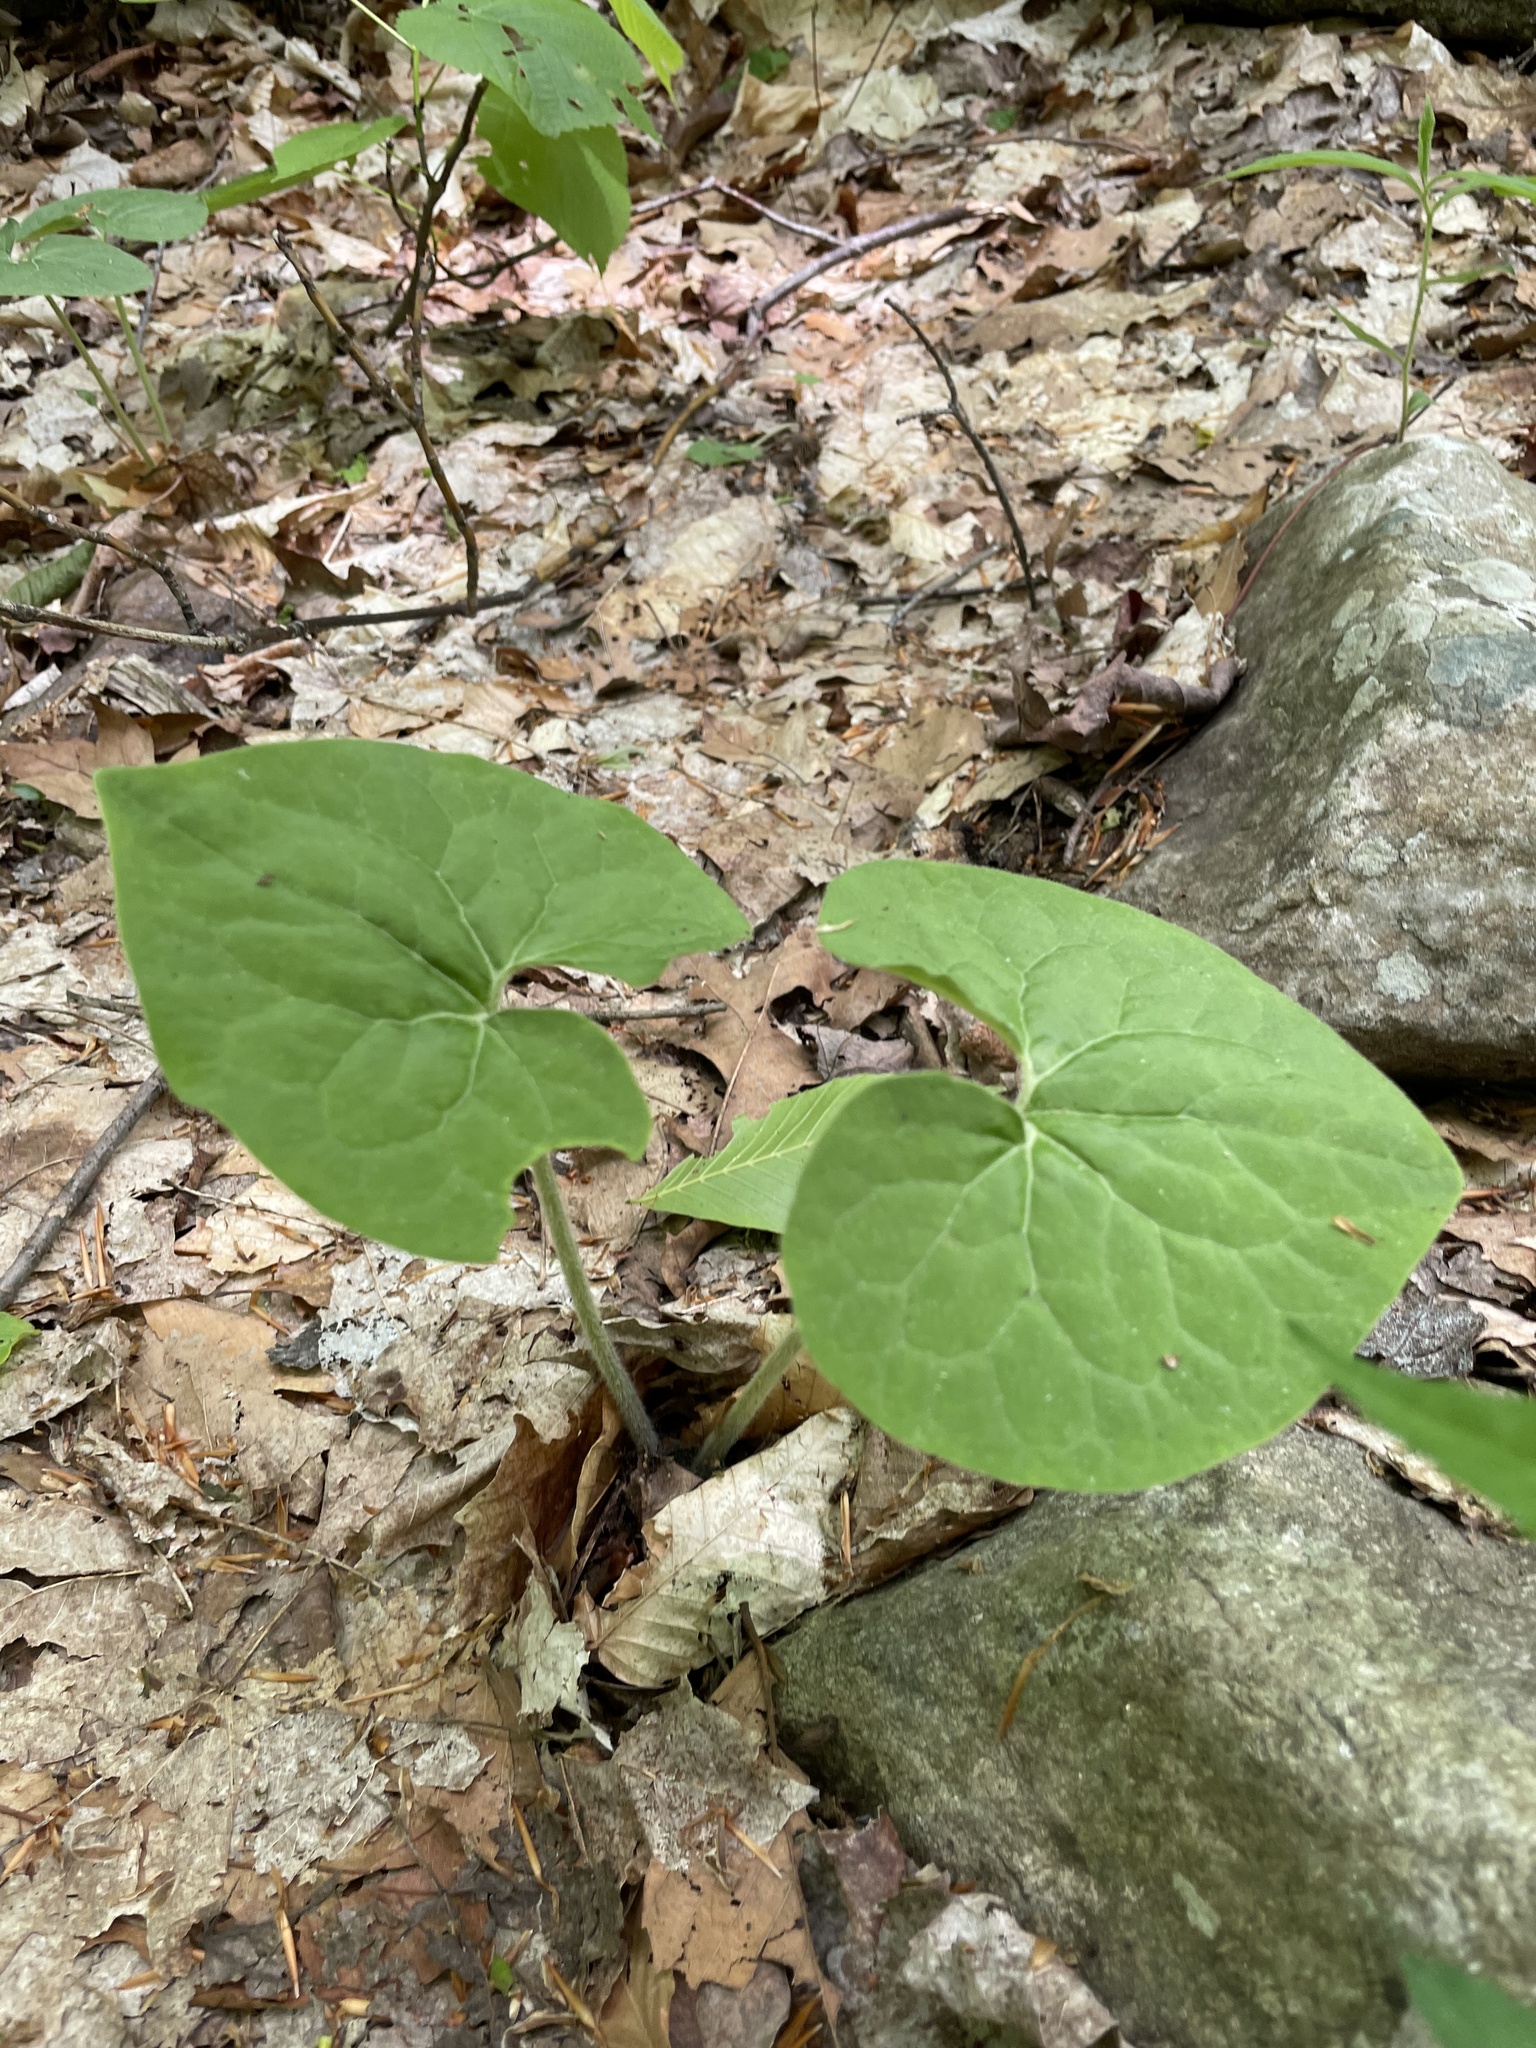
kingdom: Plantae
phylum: Tracheophyta
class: Magnoliopsida
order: Piperales
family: Aristolochiaceae
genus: Asarum
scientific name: Asarum canadense
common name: Wild ginger
